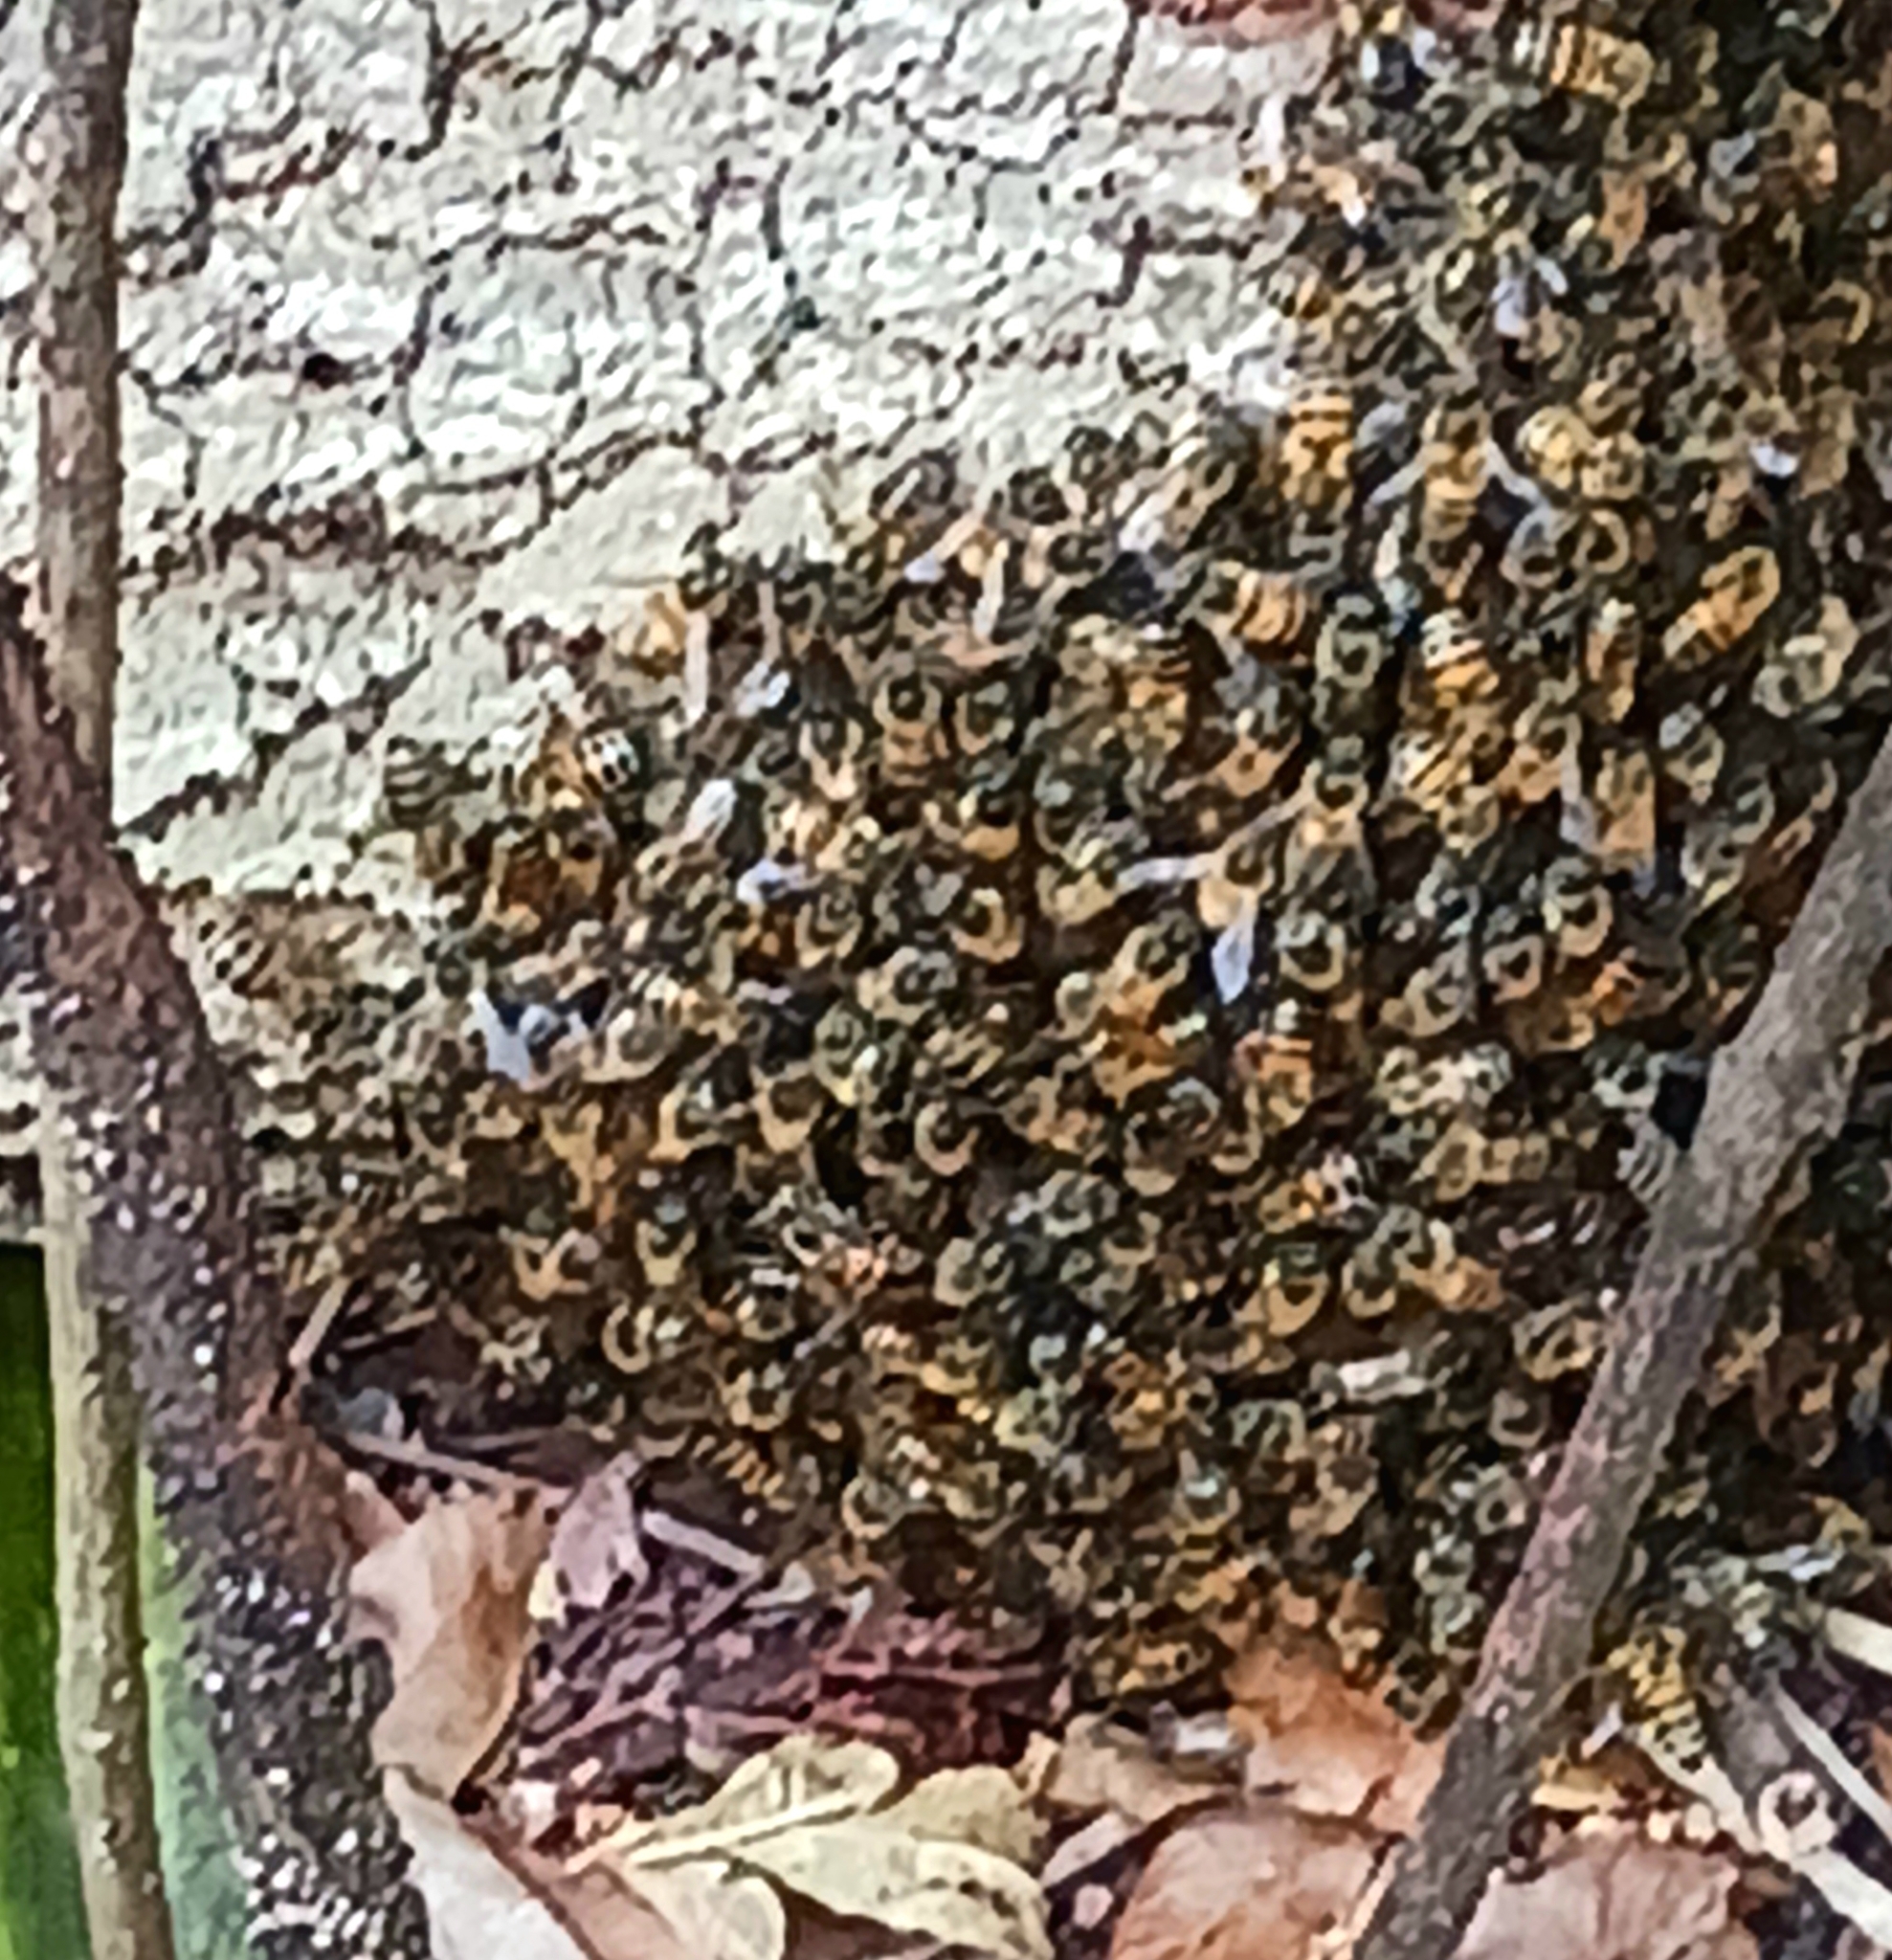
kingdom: Animalia
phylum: Arthropoda
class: Insecta
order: Hymenoptera
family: Apidae
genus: Apis
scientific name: Apis mellifera
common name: Honey bee
